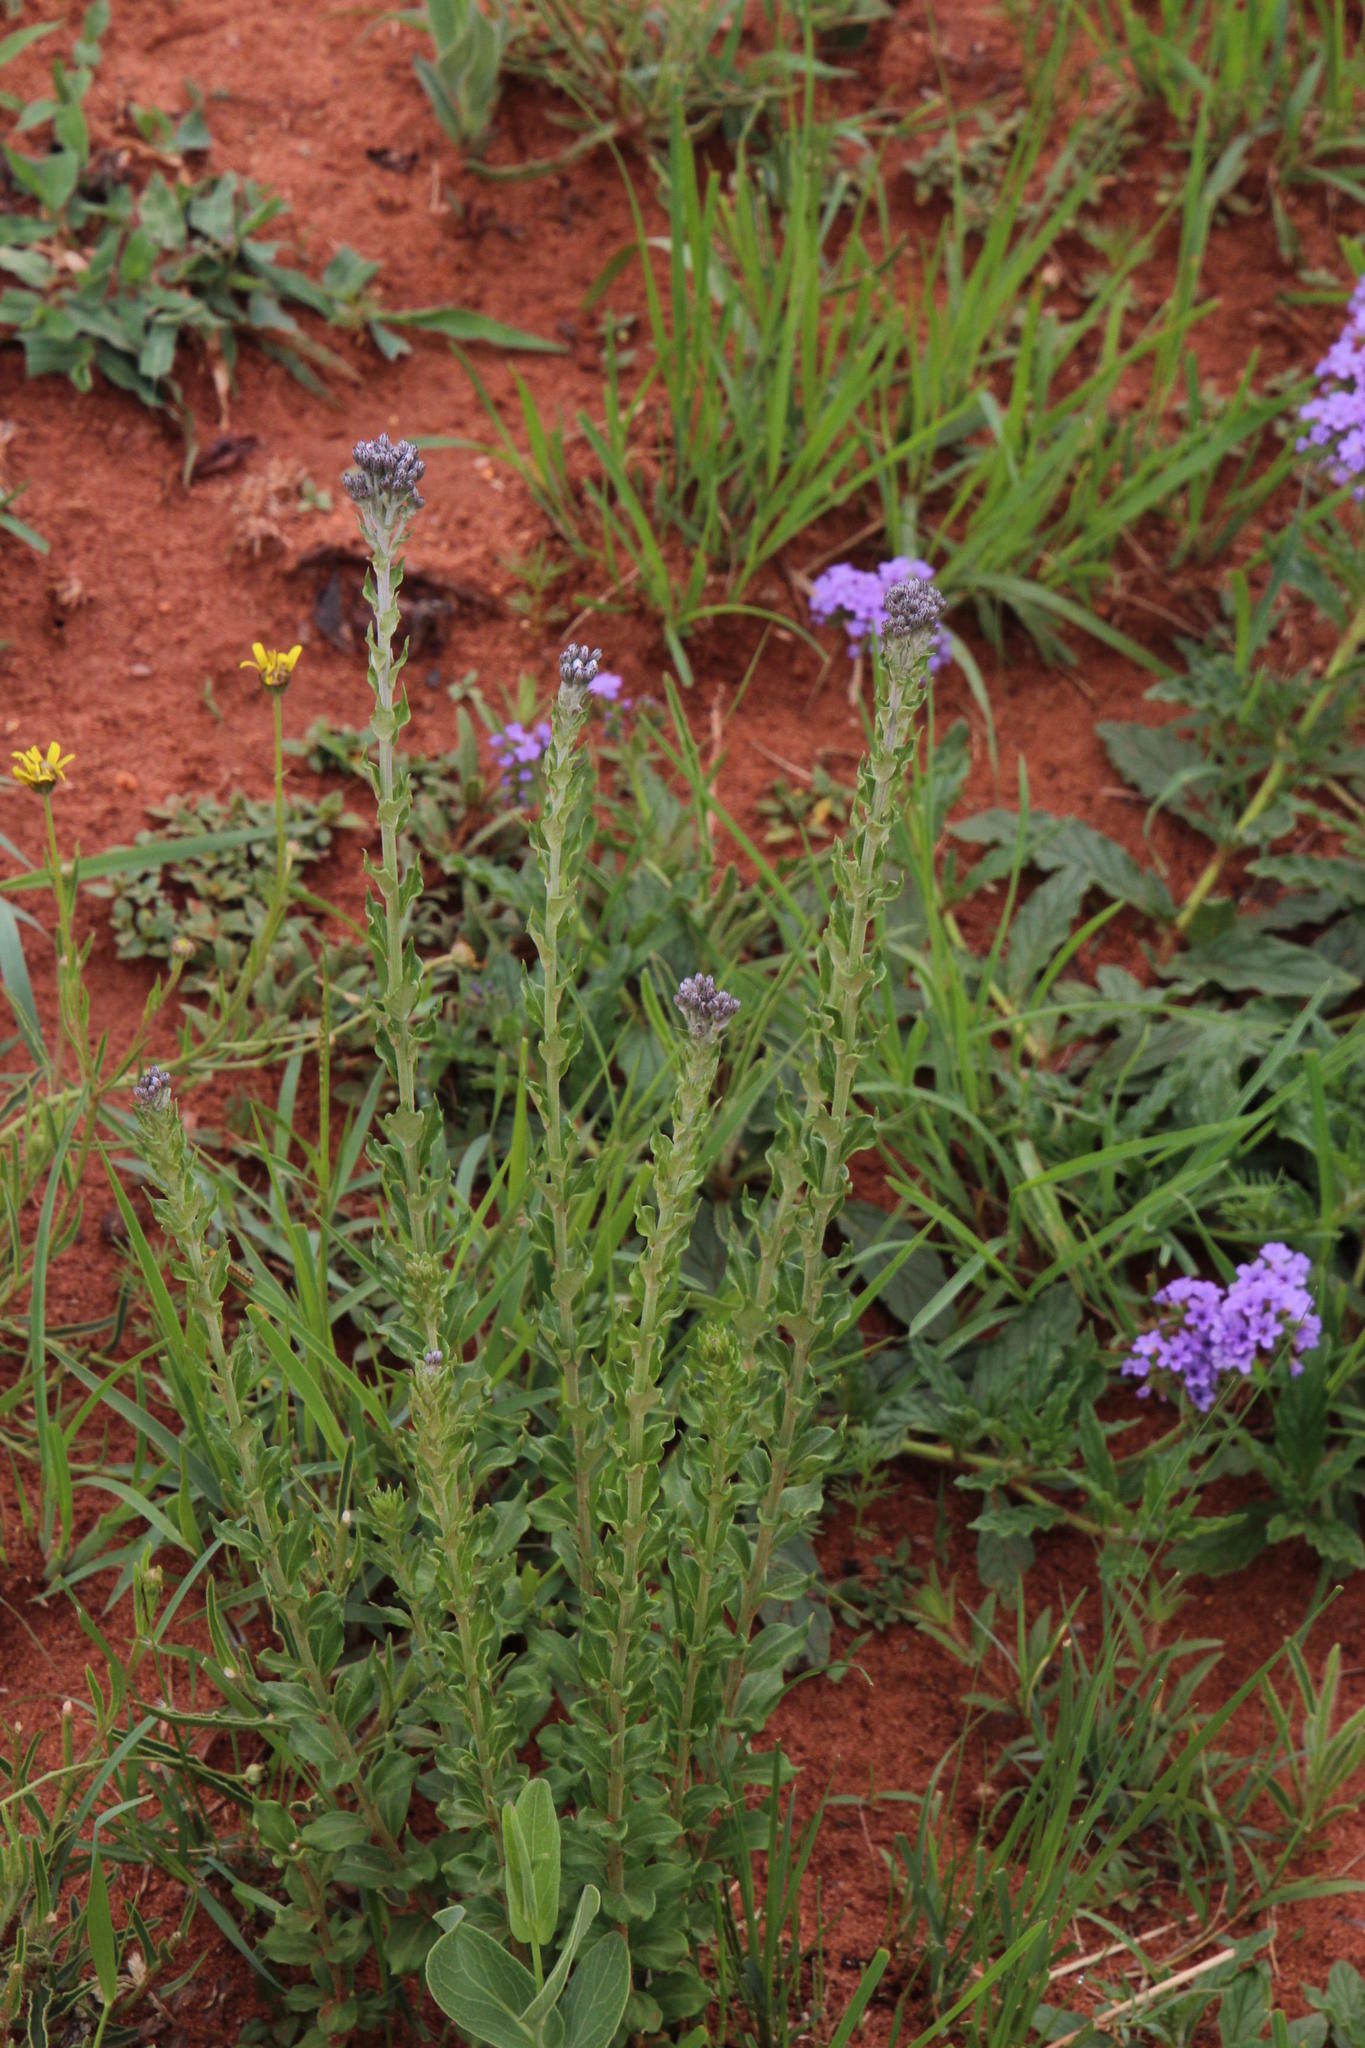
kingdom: Plantae
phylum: Tracheophyta
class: Magnoliopsida
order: Asterales
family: Asteraceae
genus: Hilliardiella
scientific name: Hilliardiella oligocephala
